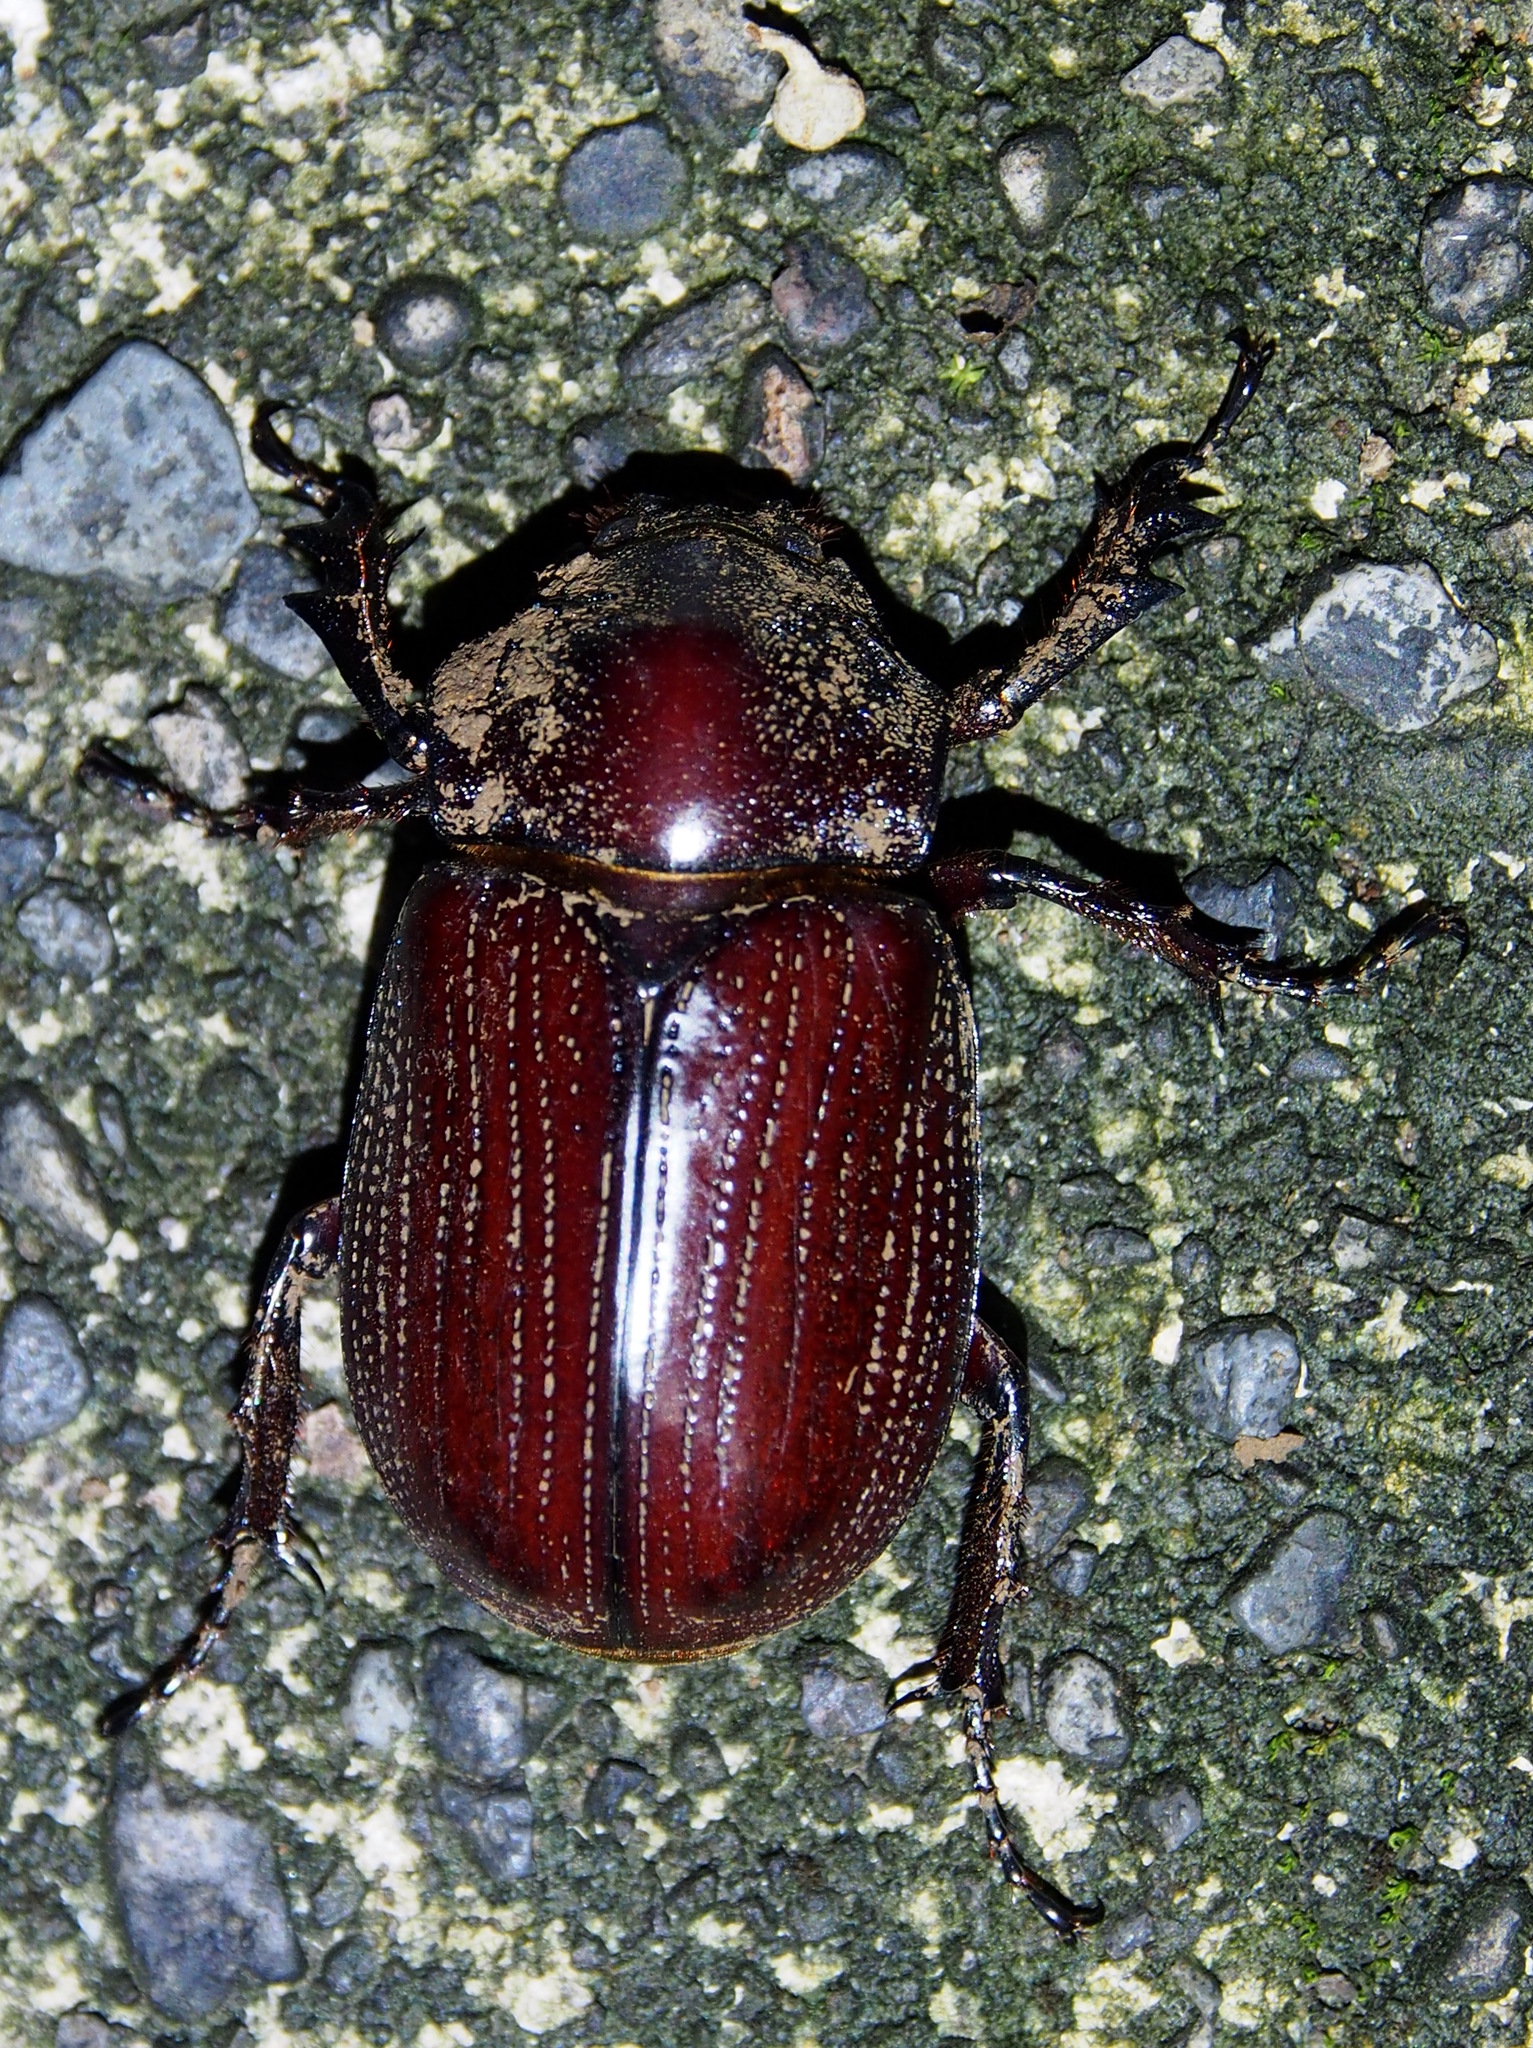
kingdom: Animalia
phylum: Arthropoda
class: Insecta
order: Coleoptera
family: Scarabaeidae
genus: Coelosis
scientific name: Coelosis biloba
